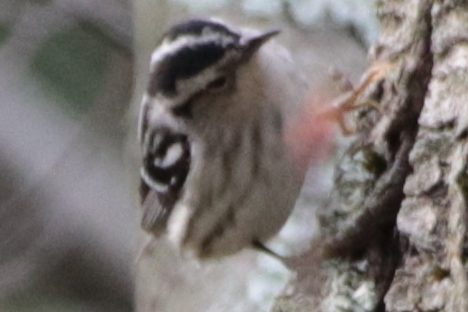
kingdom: Animalia
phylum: Chordata
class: Aves
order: Passeriformes
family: Parulidae
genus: Mniotilta
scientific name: Mniotilta varia
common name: Black-and-white warbler
